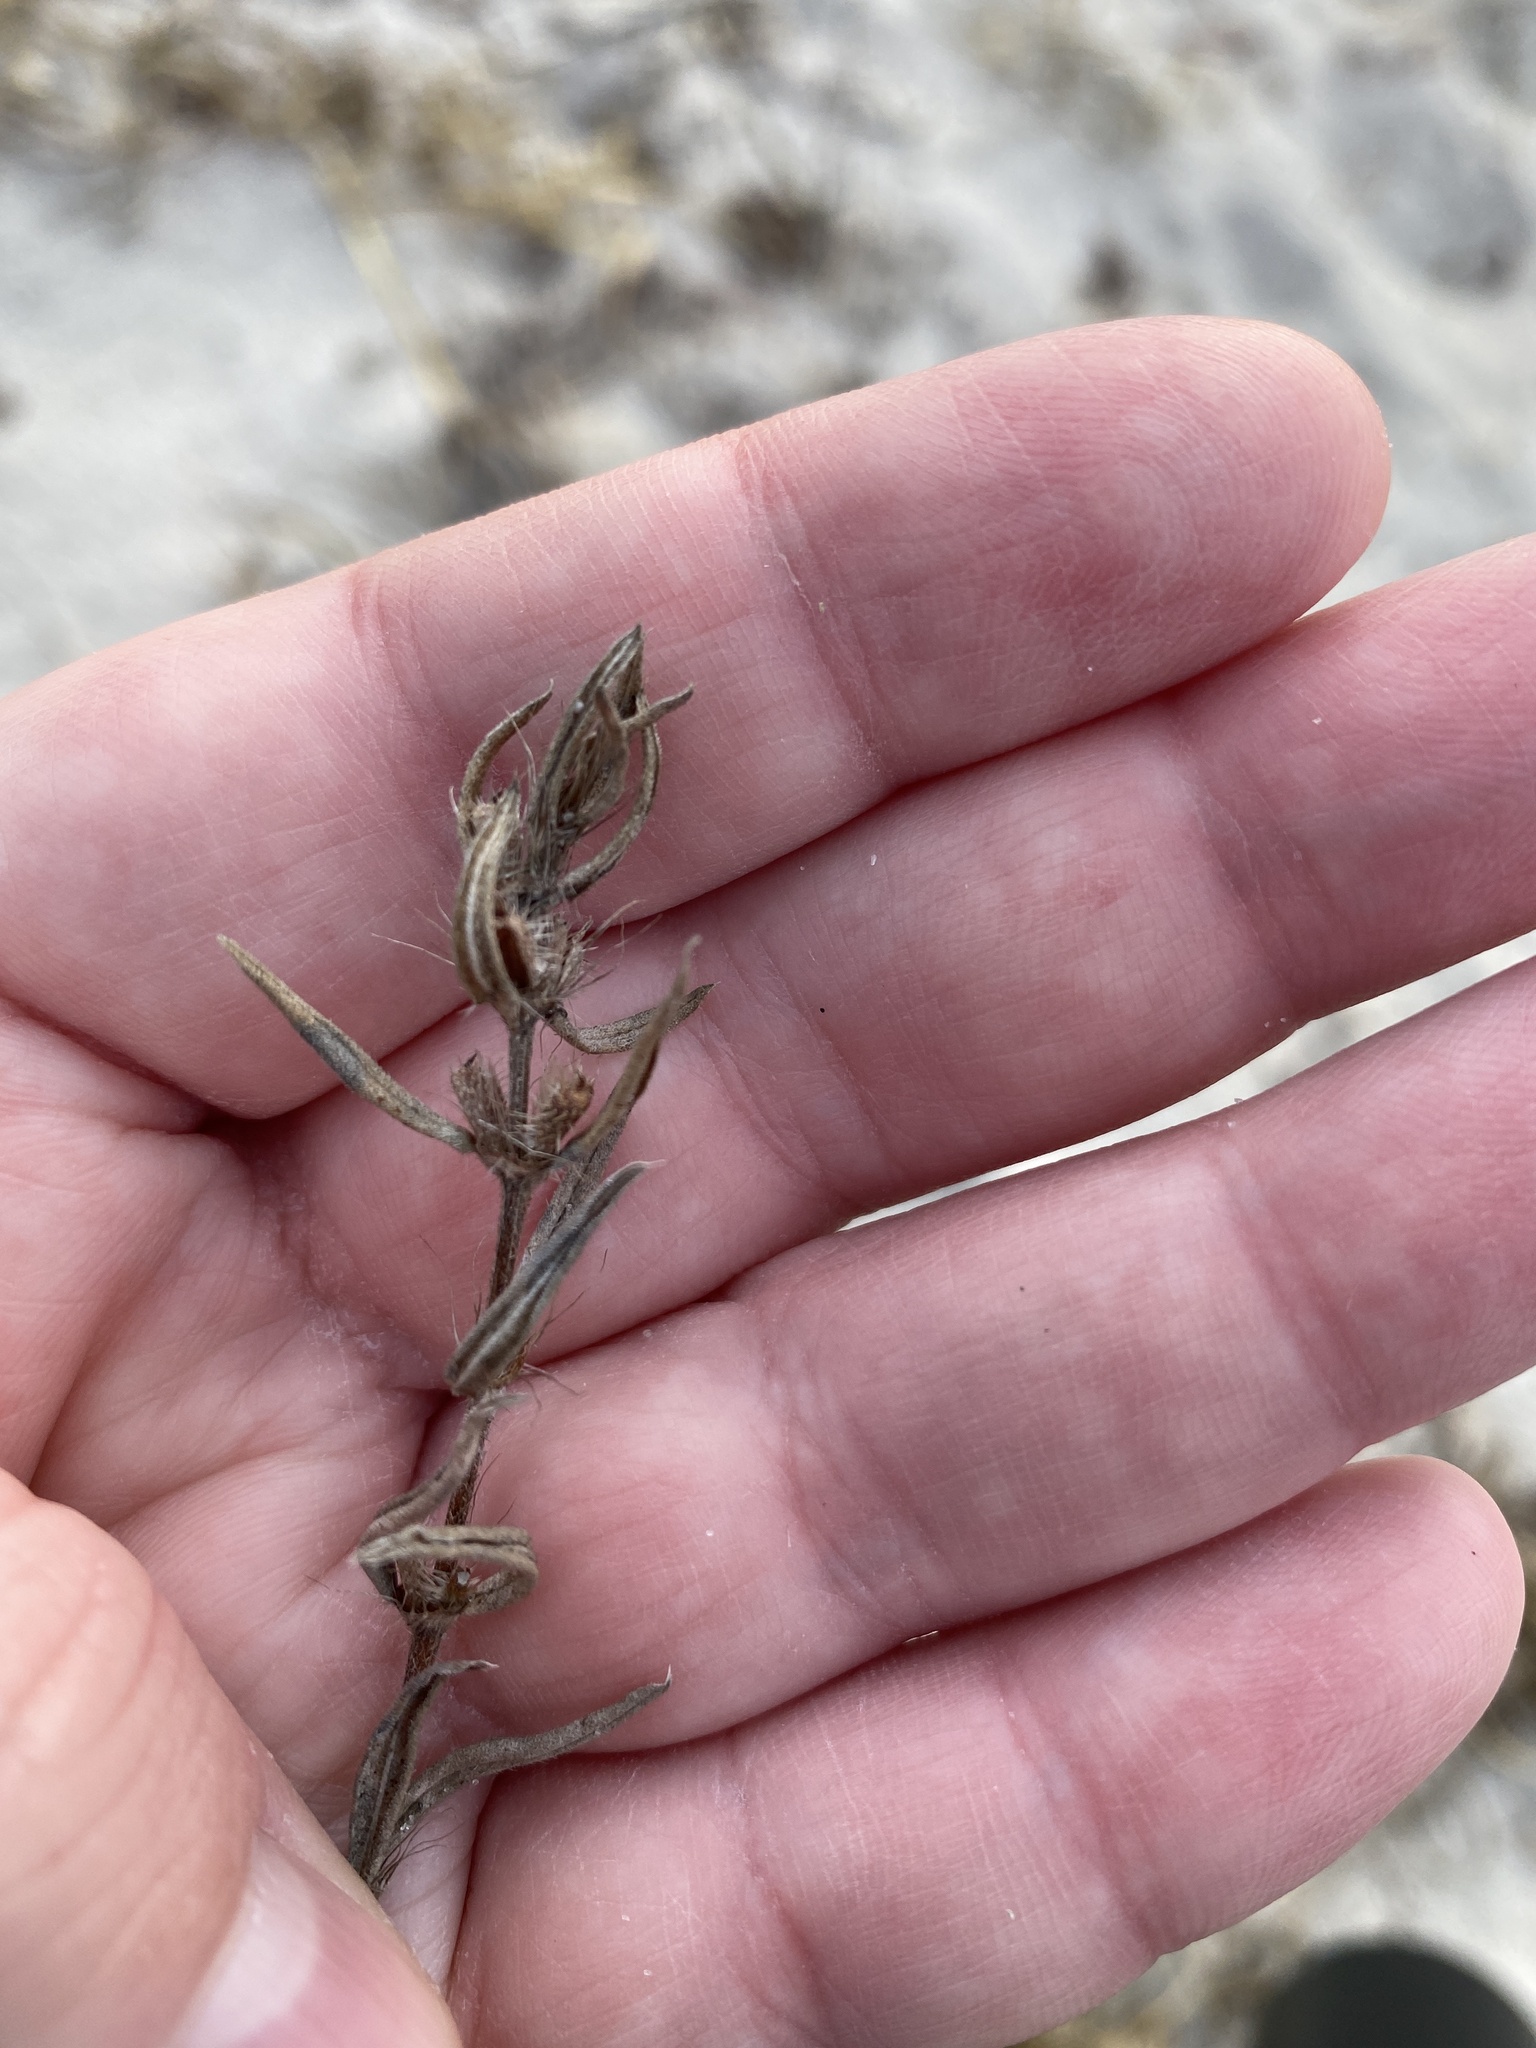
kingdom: Plantae
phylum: Tracheophyta
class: Magnoliopsida
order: Gentianales
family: Rubiaceae
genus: Hexasepalum
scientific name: Hexasepalum teres
